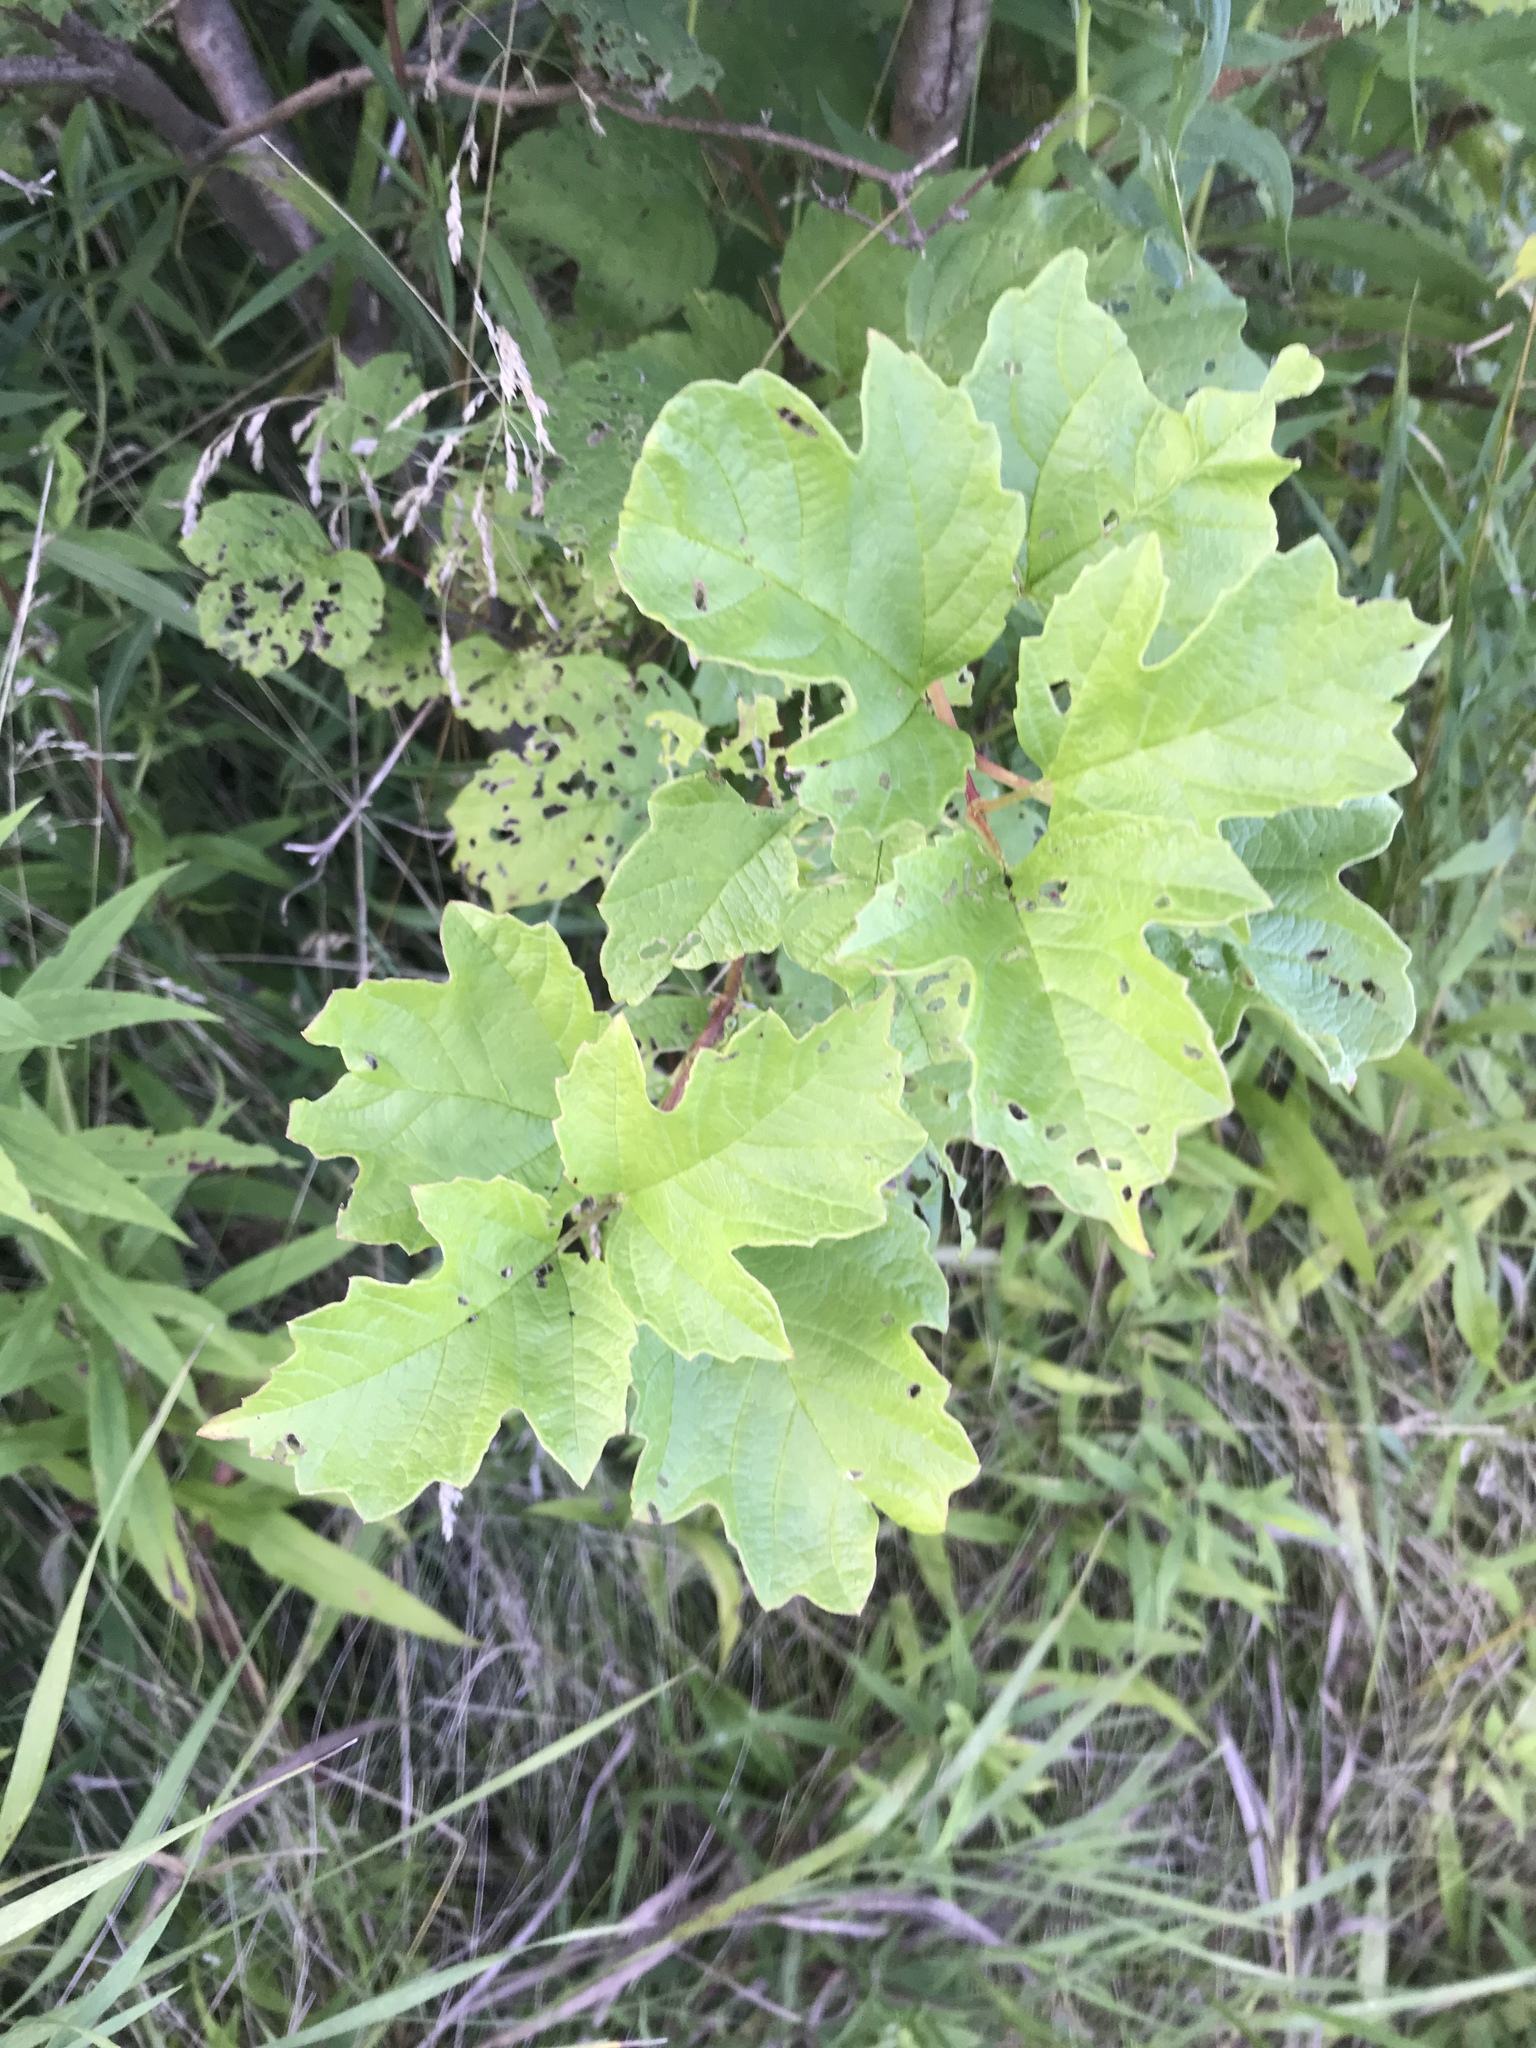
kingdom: Plantae
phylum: Tracheophyta
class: Magnoliopsida
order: Dipsacales
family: Viburnaceae
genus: Viburnum
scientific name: Viburnum opulus
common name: Guelder-rose
